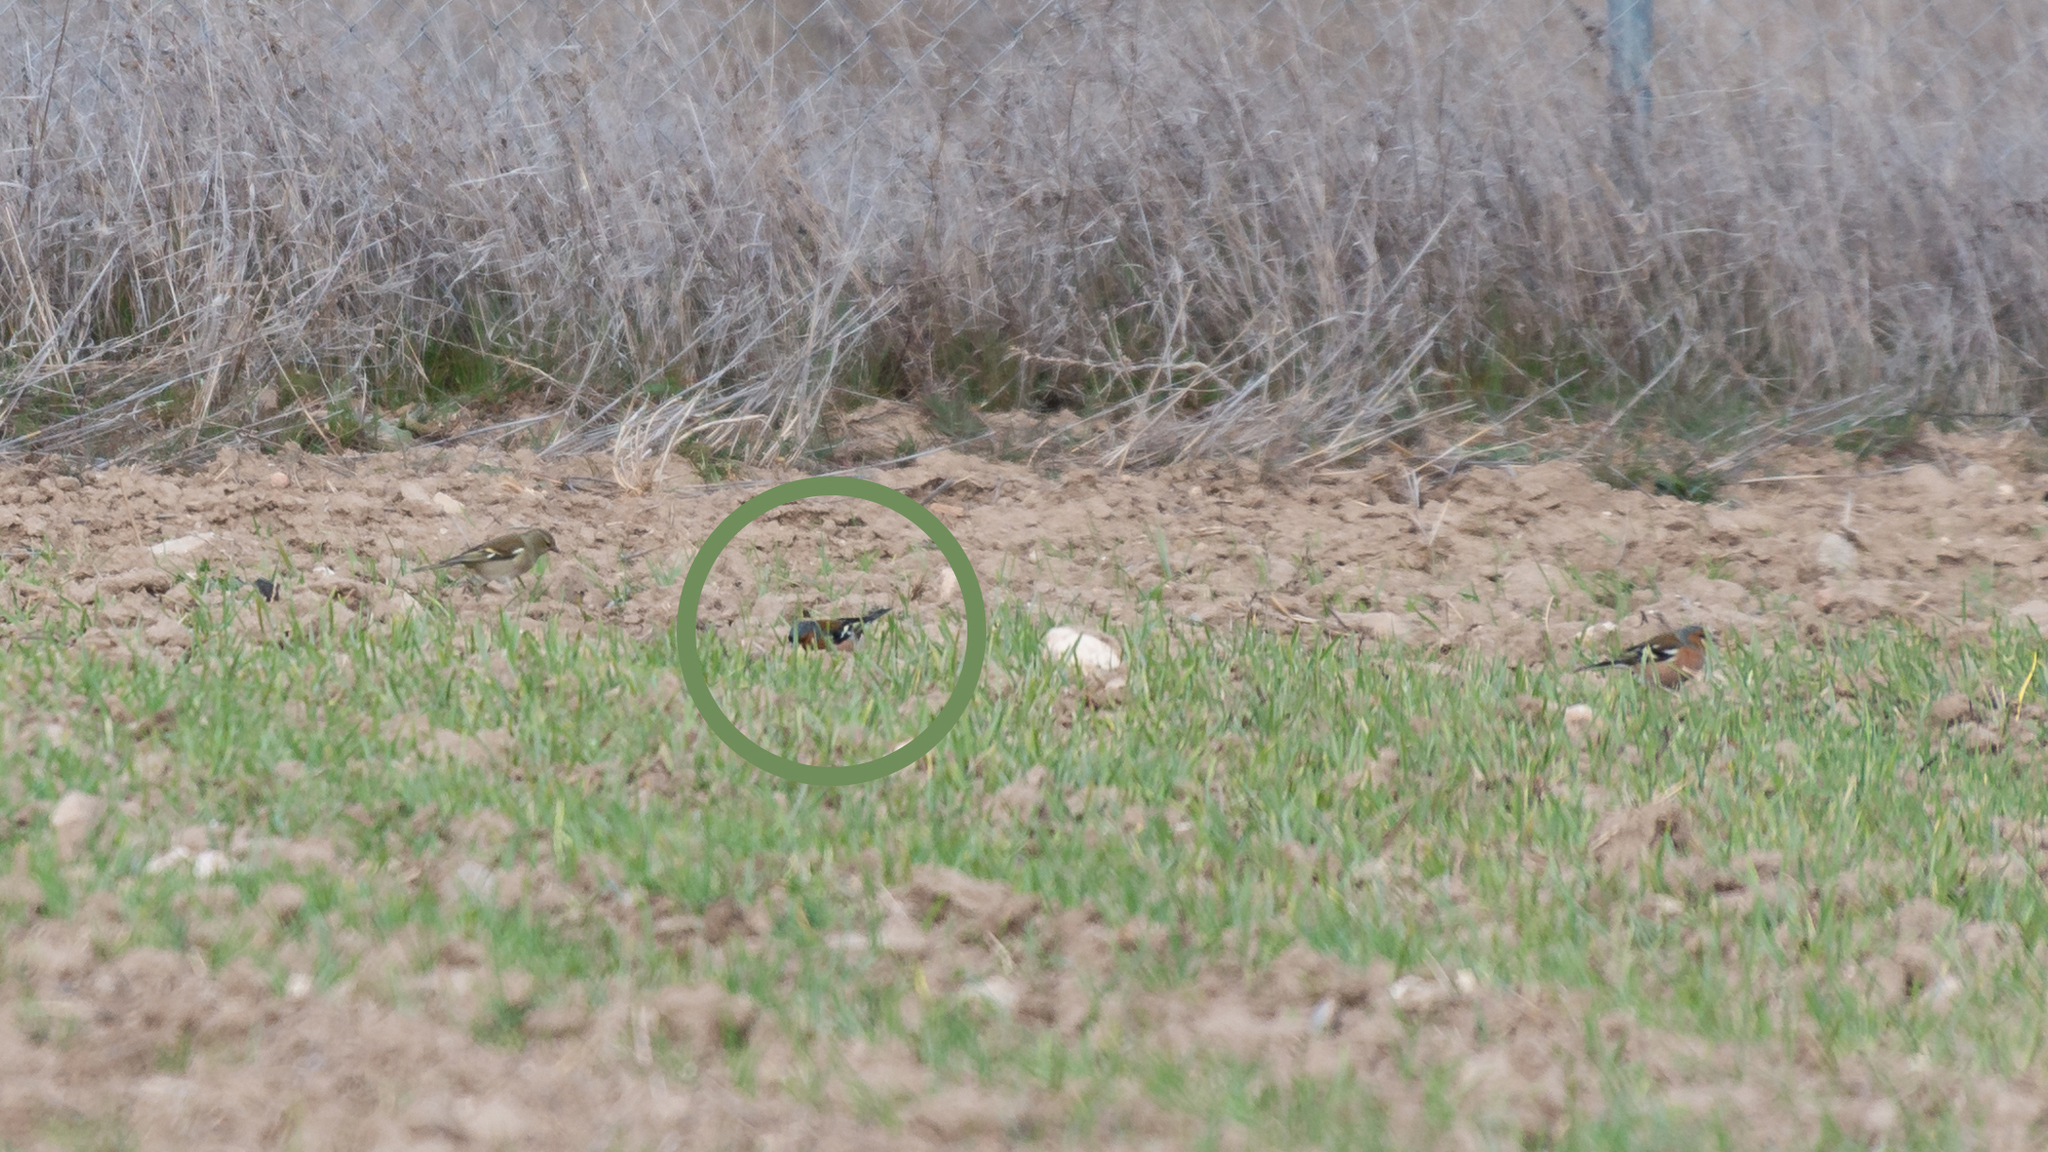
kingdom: Animalia
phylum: Chordata
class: Aves
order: Passeriformes
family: Fringillidae
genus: Fringilla
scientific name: Fringilla coelebs
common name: Common chaffinch
